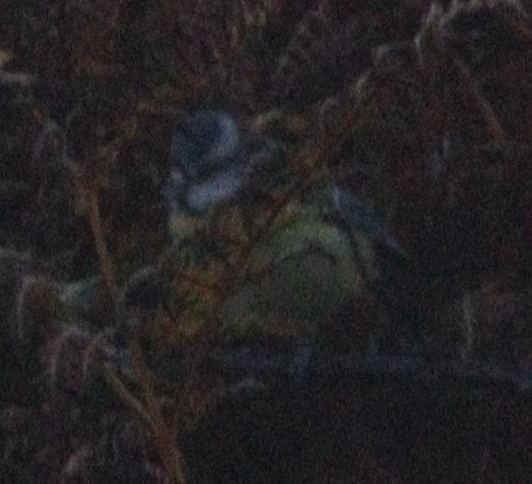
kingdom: Animalia
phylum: Chordata
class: Aves
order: Passeriformes
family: Paridae
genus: Cyanistes
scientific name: Cyanistes caeruleus
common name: Eurasian blue tit
